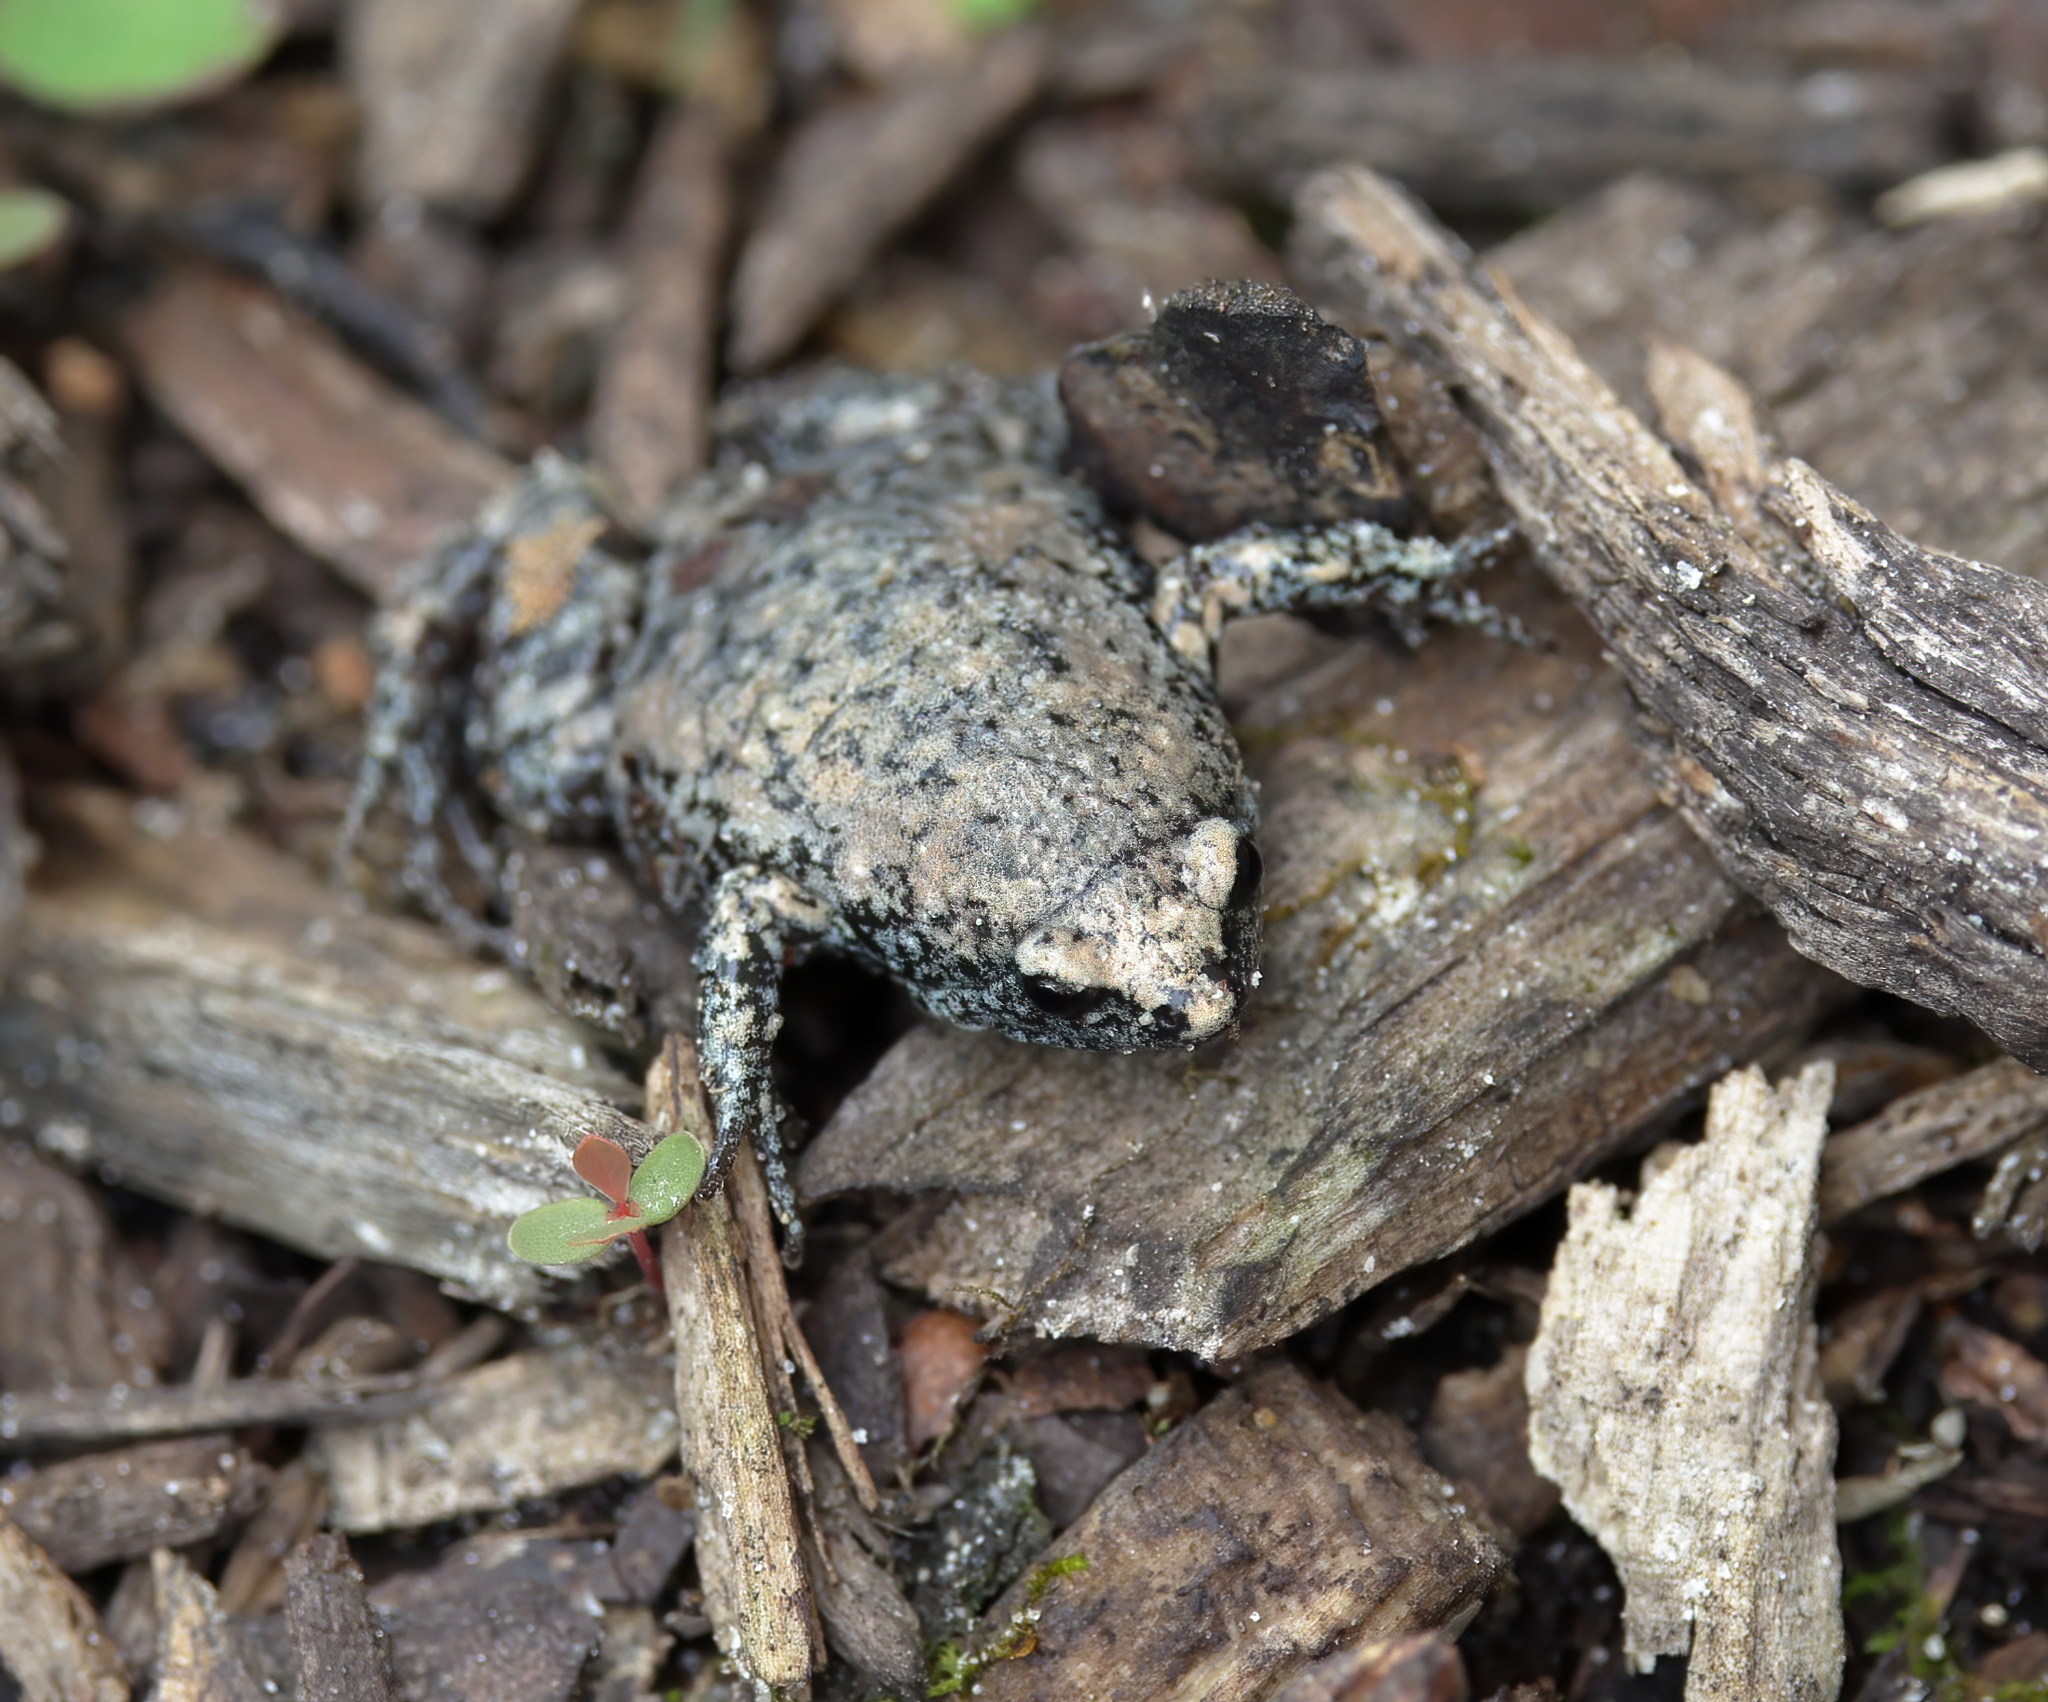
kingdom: Animalia
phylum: Chordata
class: Amphibia
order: Anura
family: Microhylidae
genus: Gastrophryne
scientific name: Gastrophryne carolinensis
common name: Eastern narrowmouth toad
